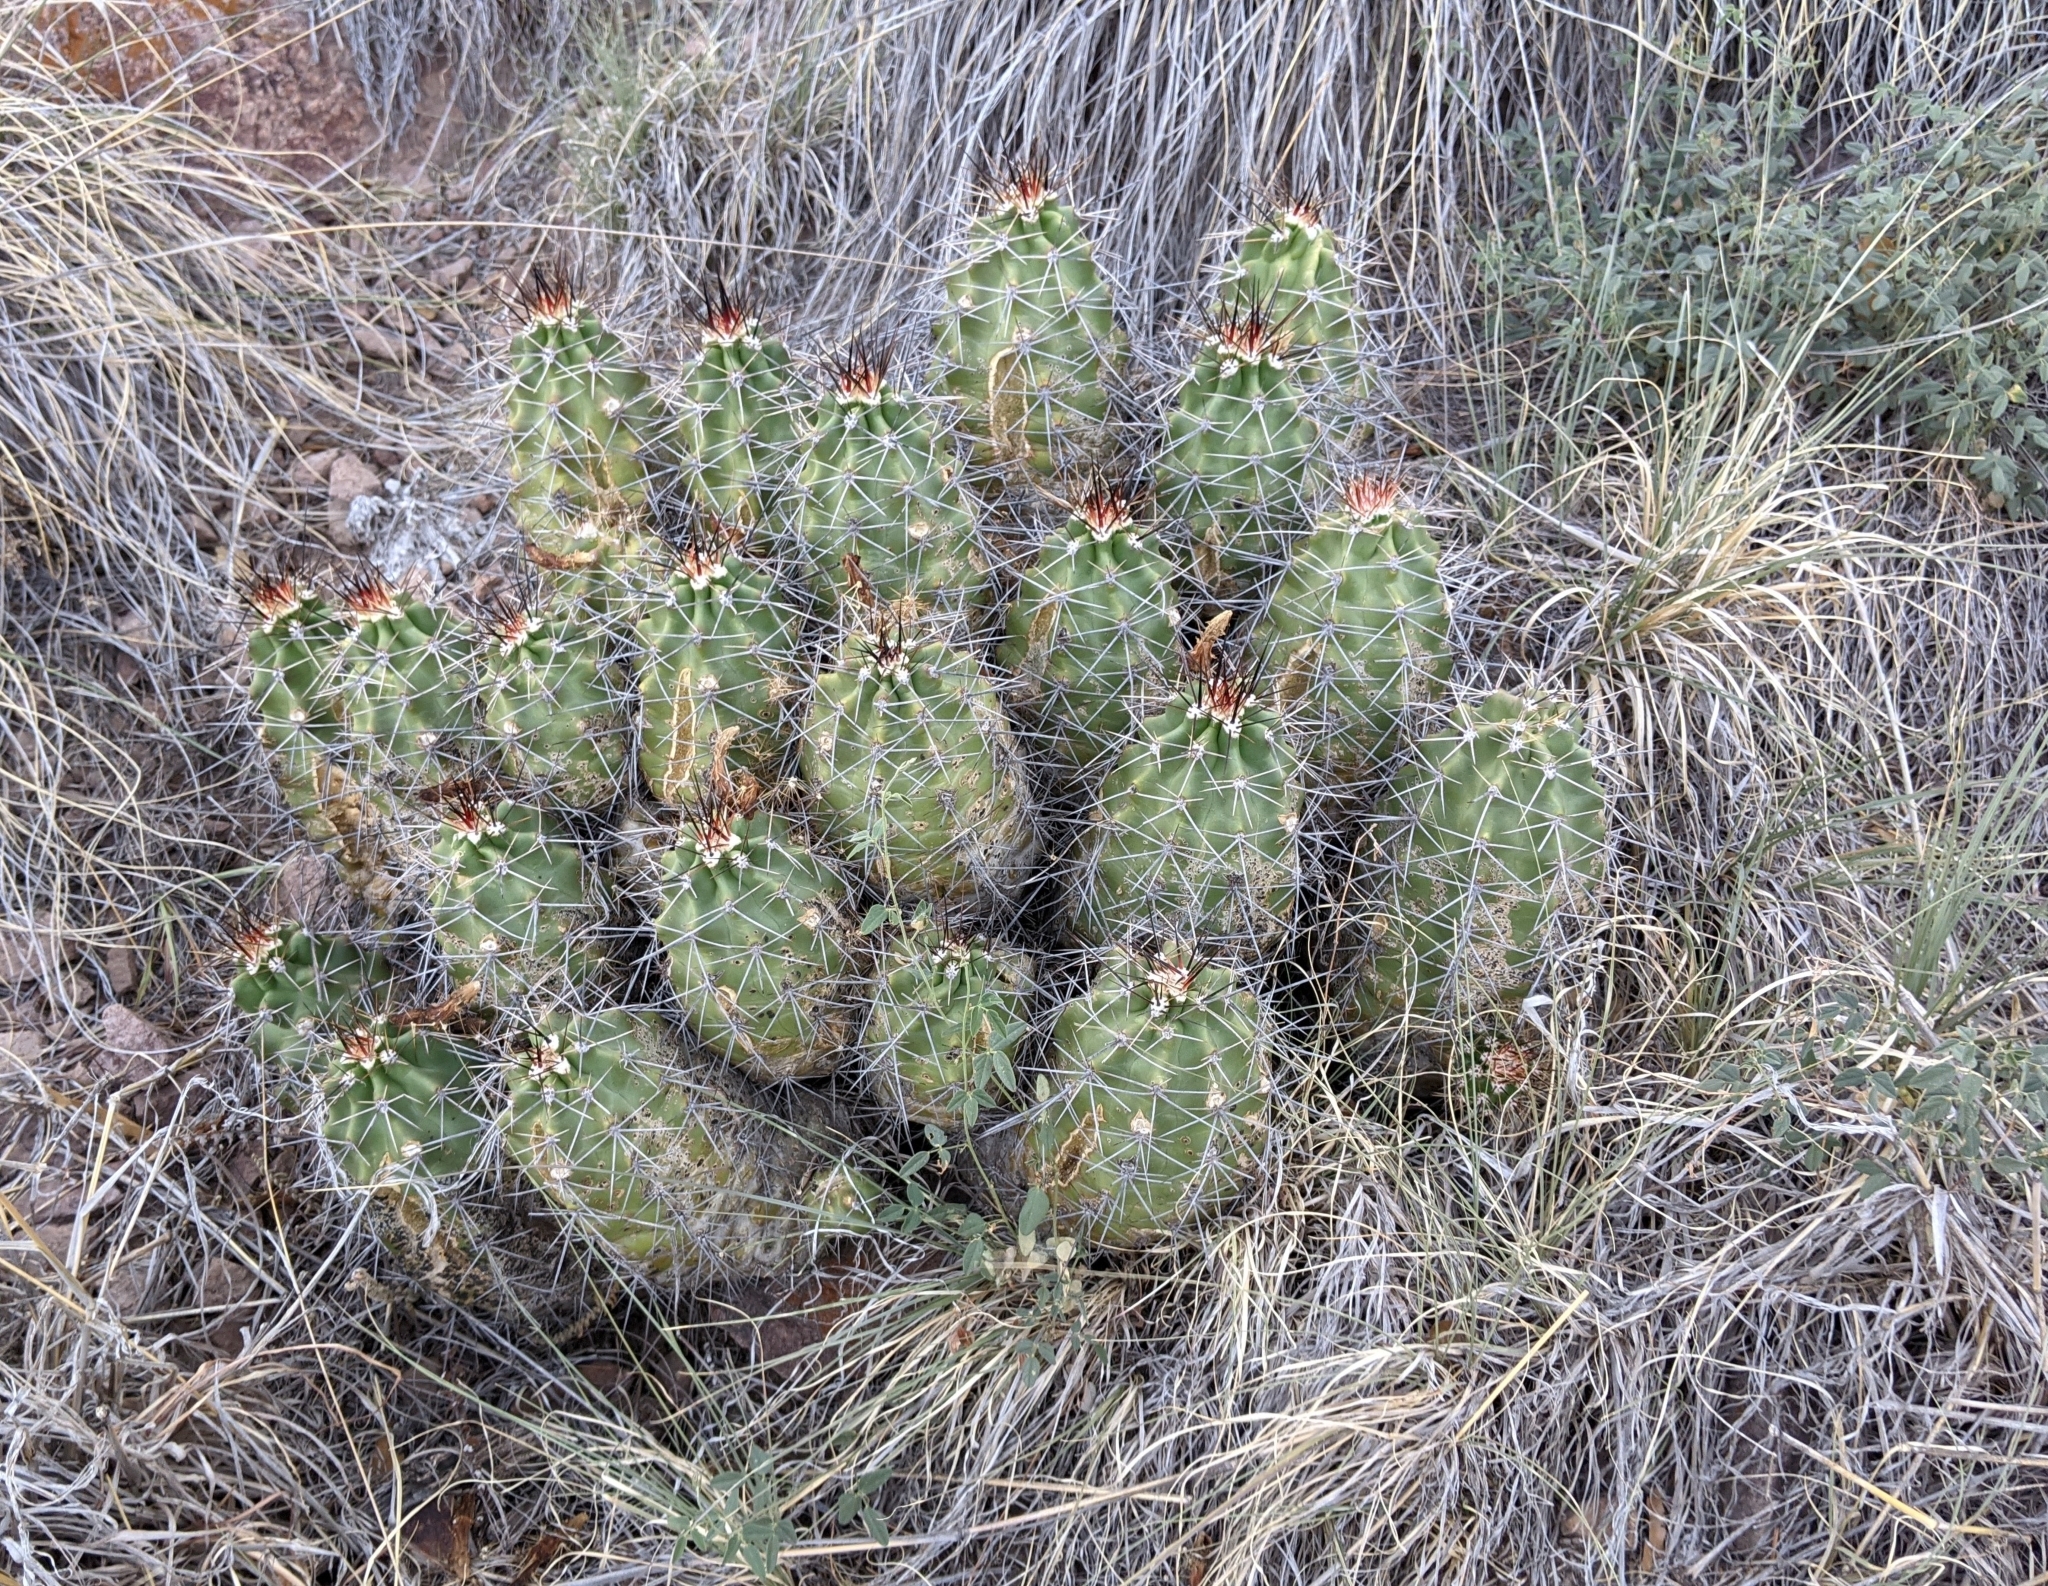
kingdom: Plantae
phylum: Tracheophyta
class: Magnoliopsida
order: Caryophyllales
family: Cactaceae
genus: Echinocereus
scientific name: Echinocereus coccineus
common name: Scarlet hedgehog cactus
